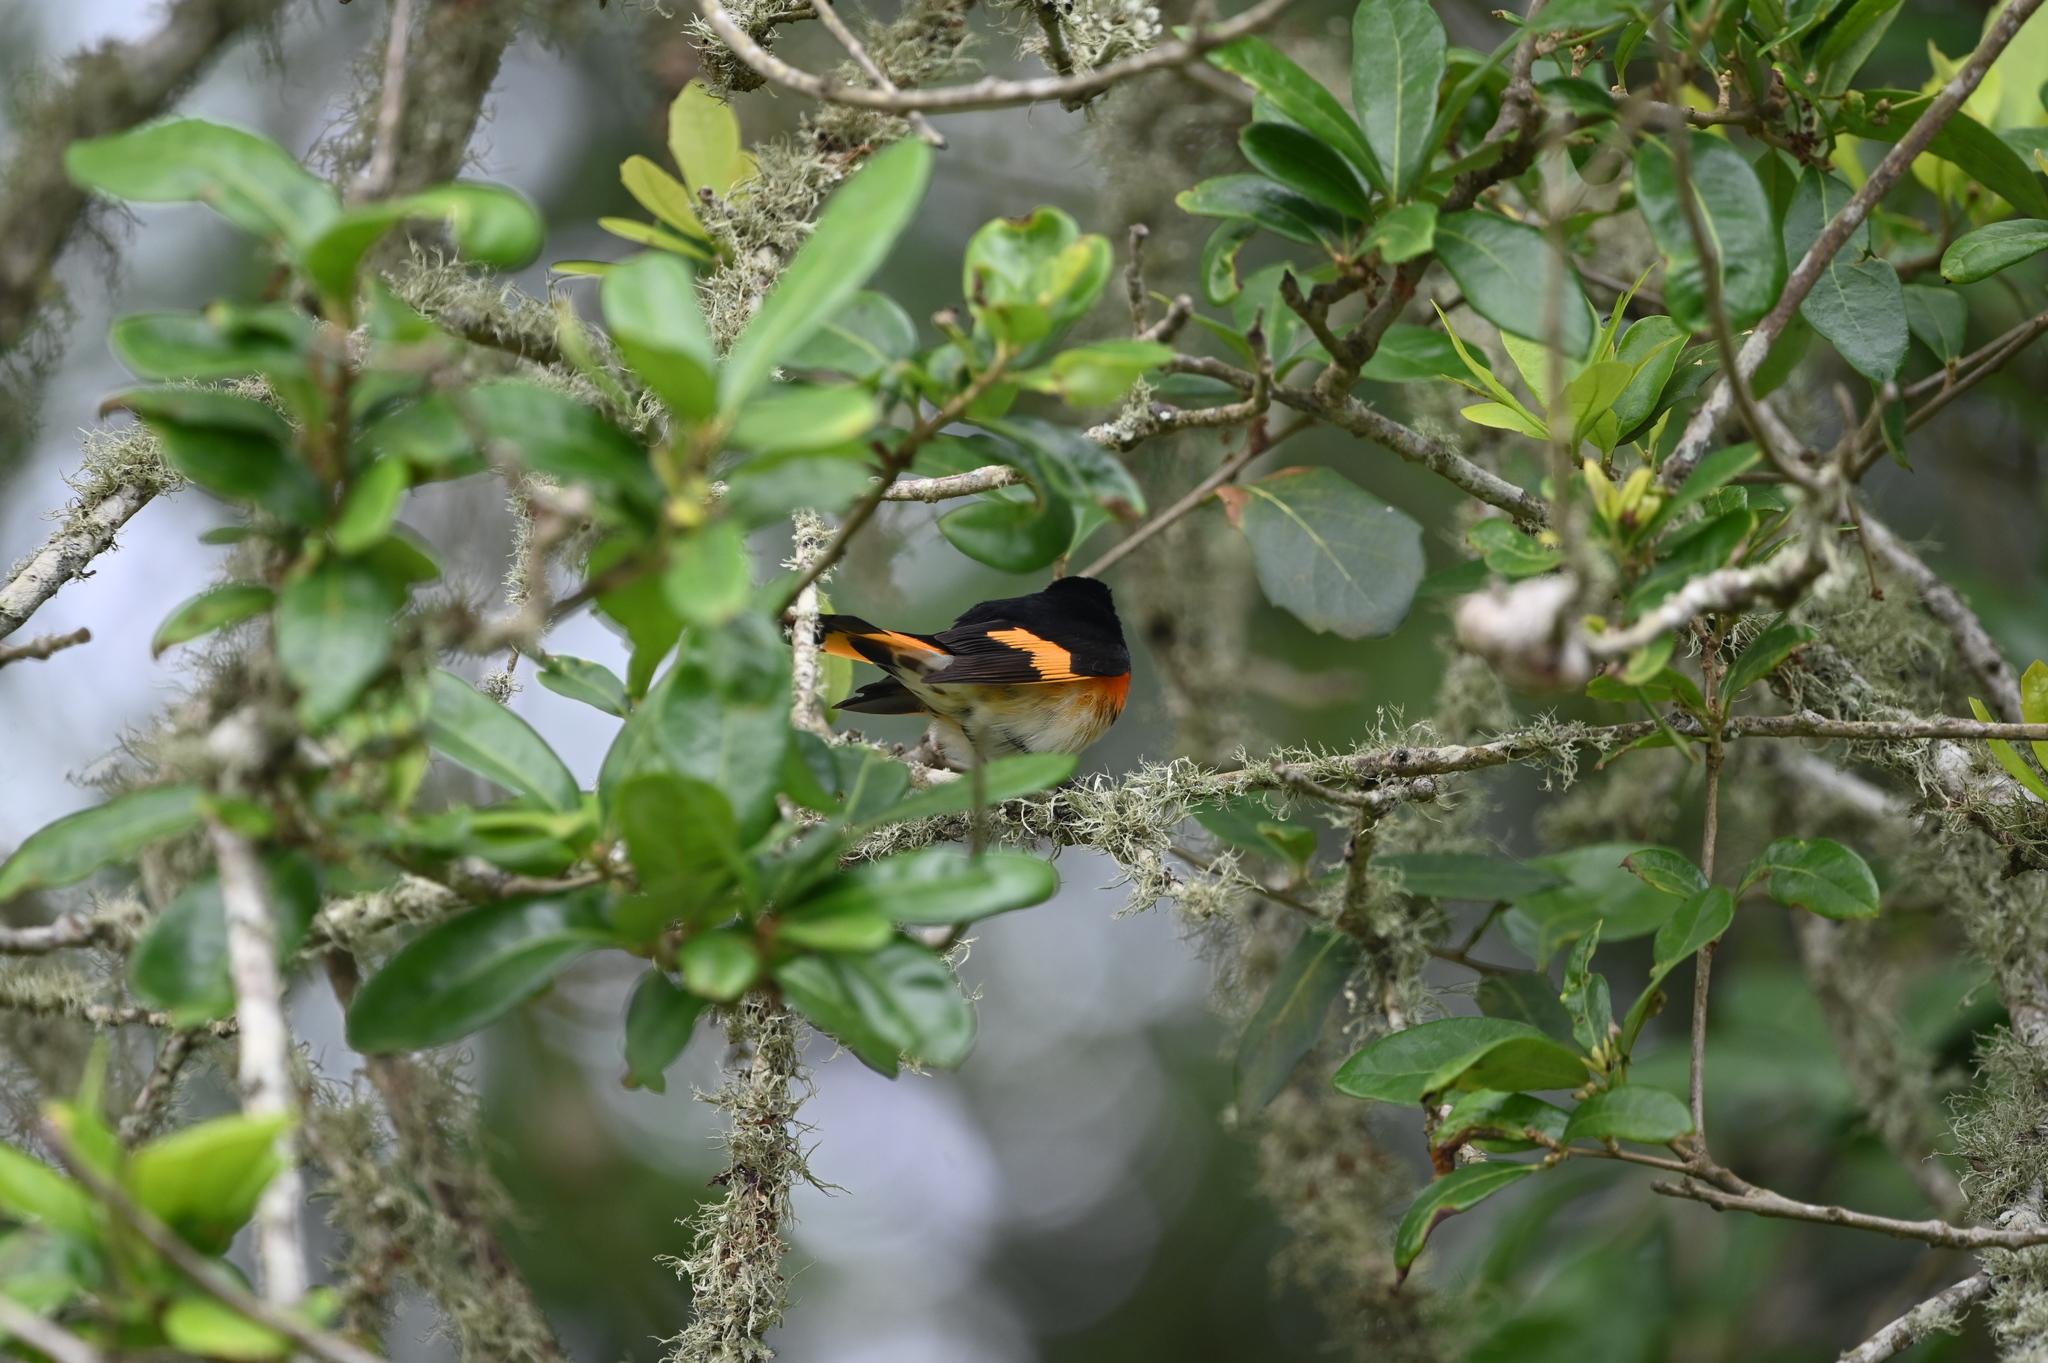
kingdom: Animalia
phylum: Chordata
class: Aves
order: Passeriformes
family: Parulidae
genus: Setophaga
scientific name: Setophaga ruticilla
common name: American redstart
